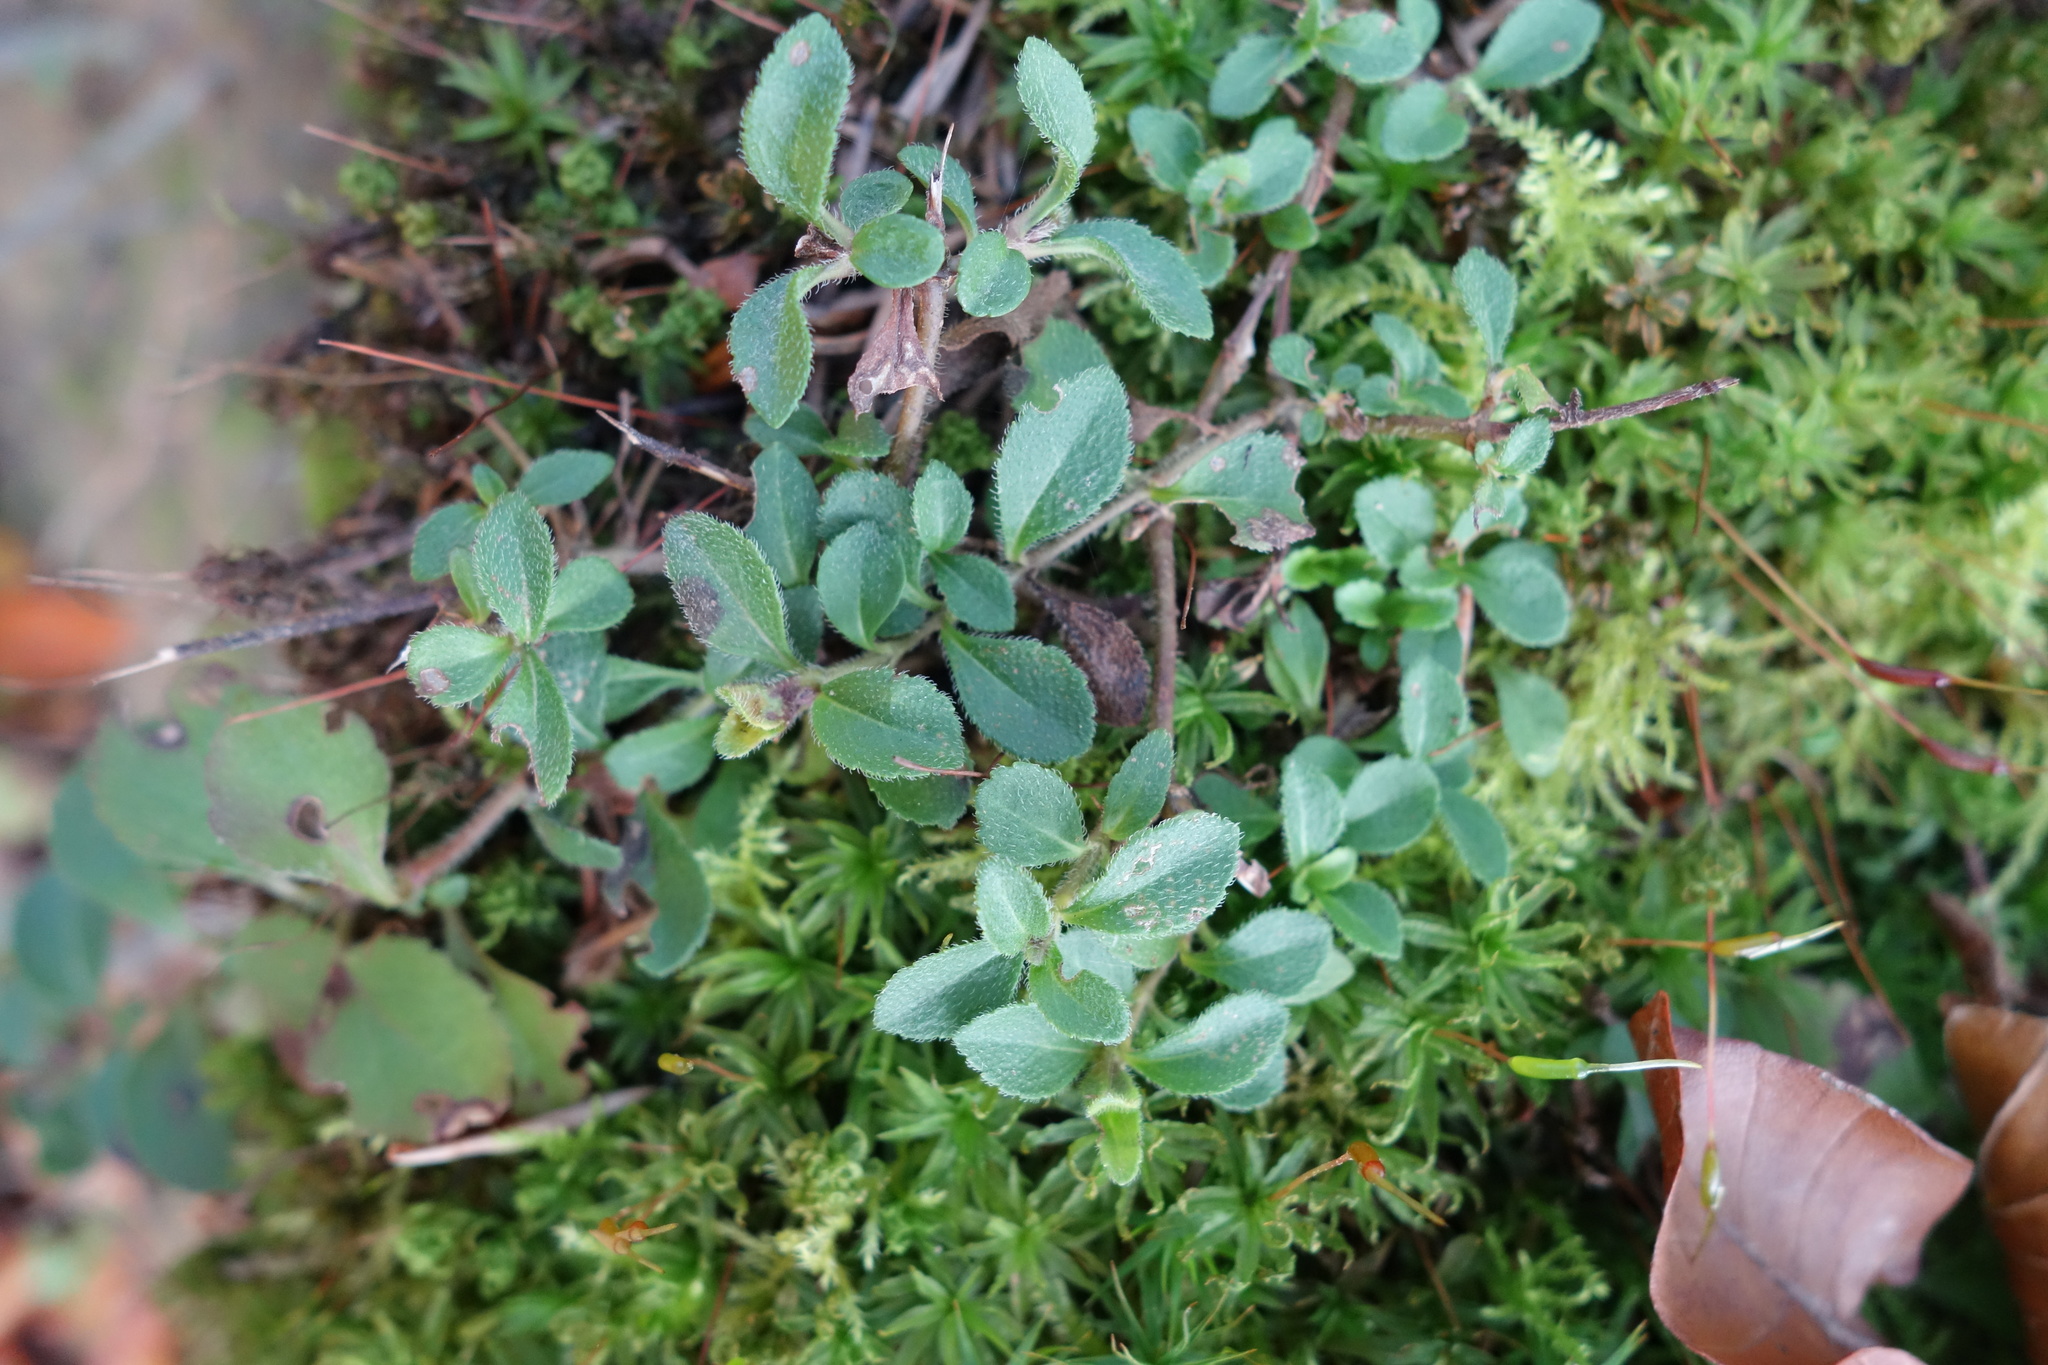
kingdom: Plantae
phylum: Tracheophyta
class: Magnoliopsida
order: Lamiales
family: Plantaginaceae
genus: Veronica
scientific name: Veronica officinalis
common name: Common speedwell
